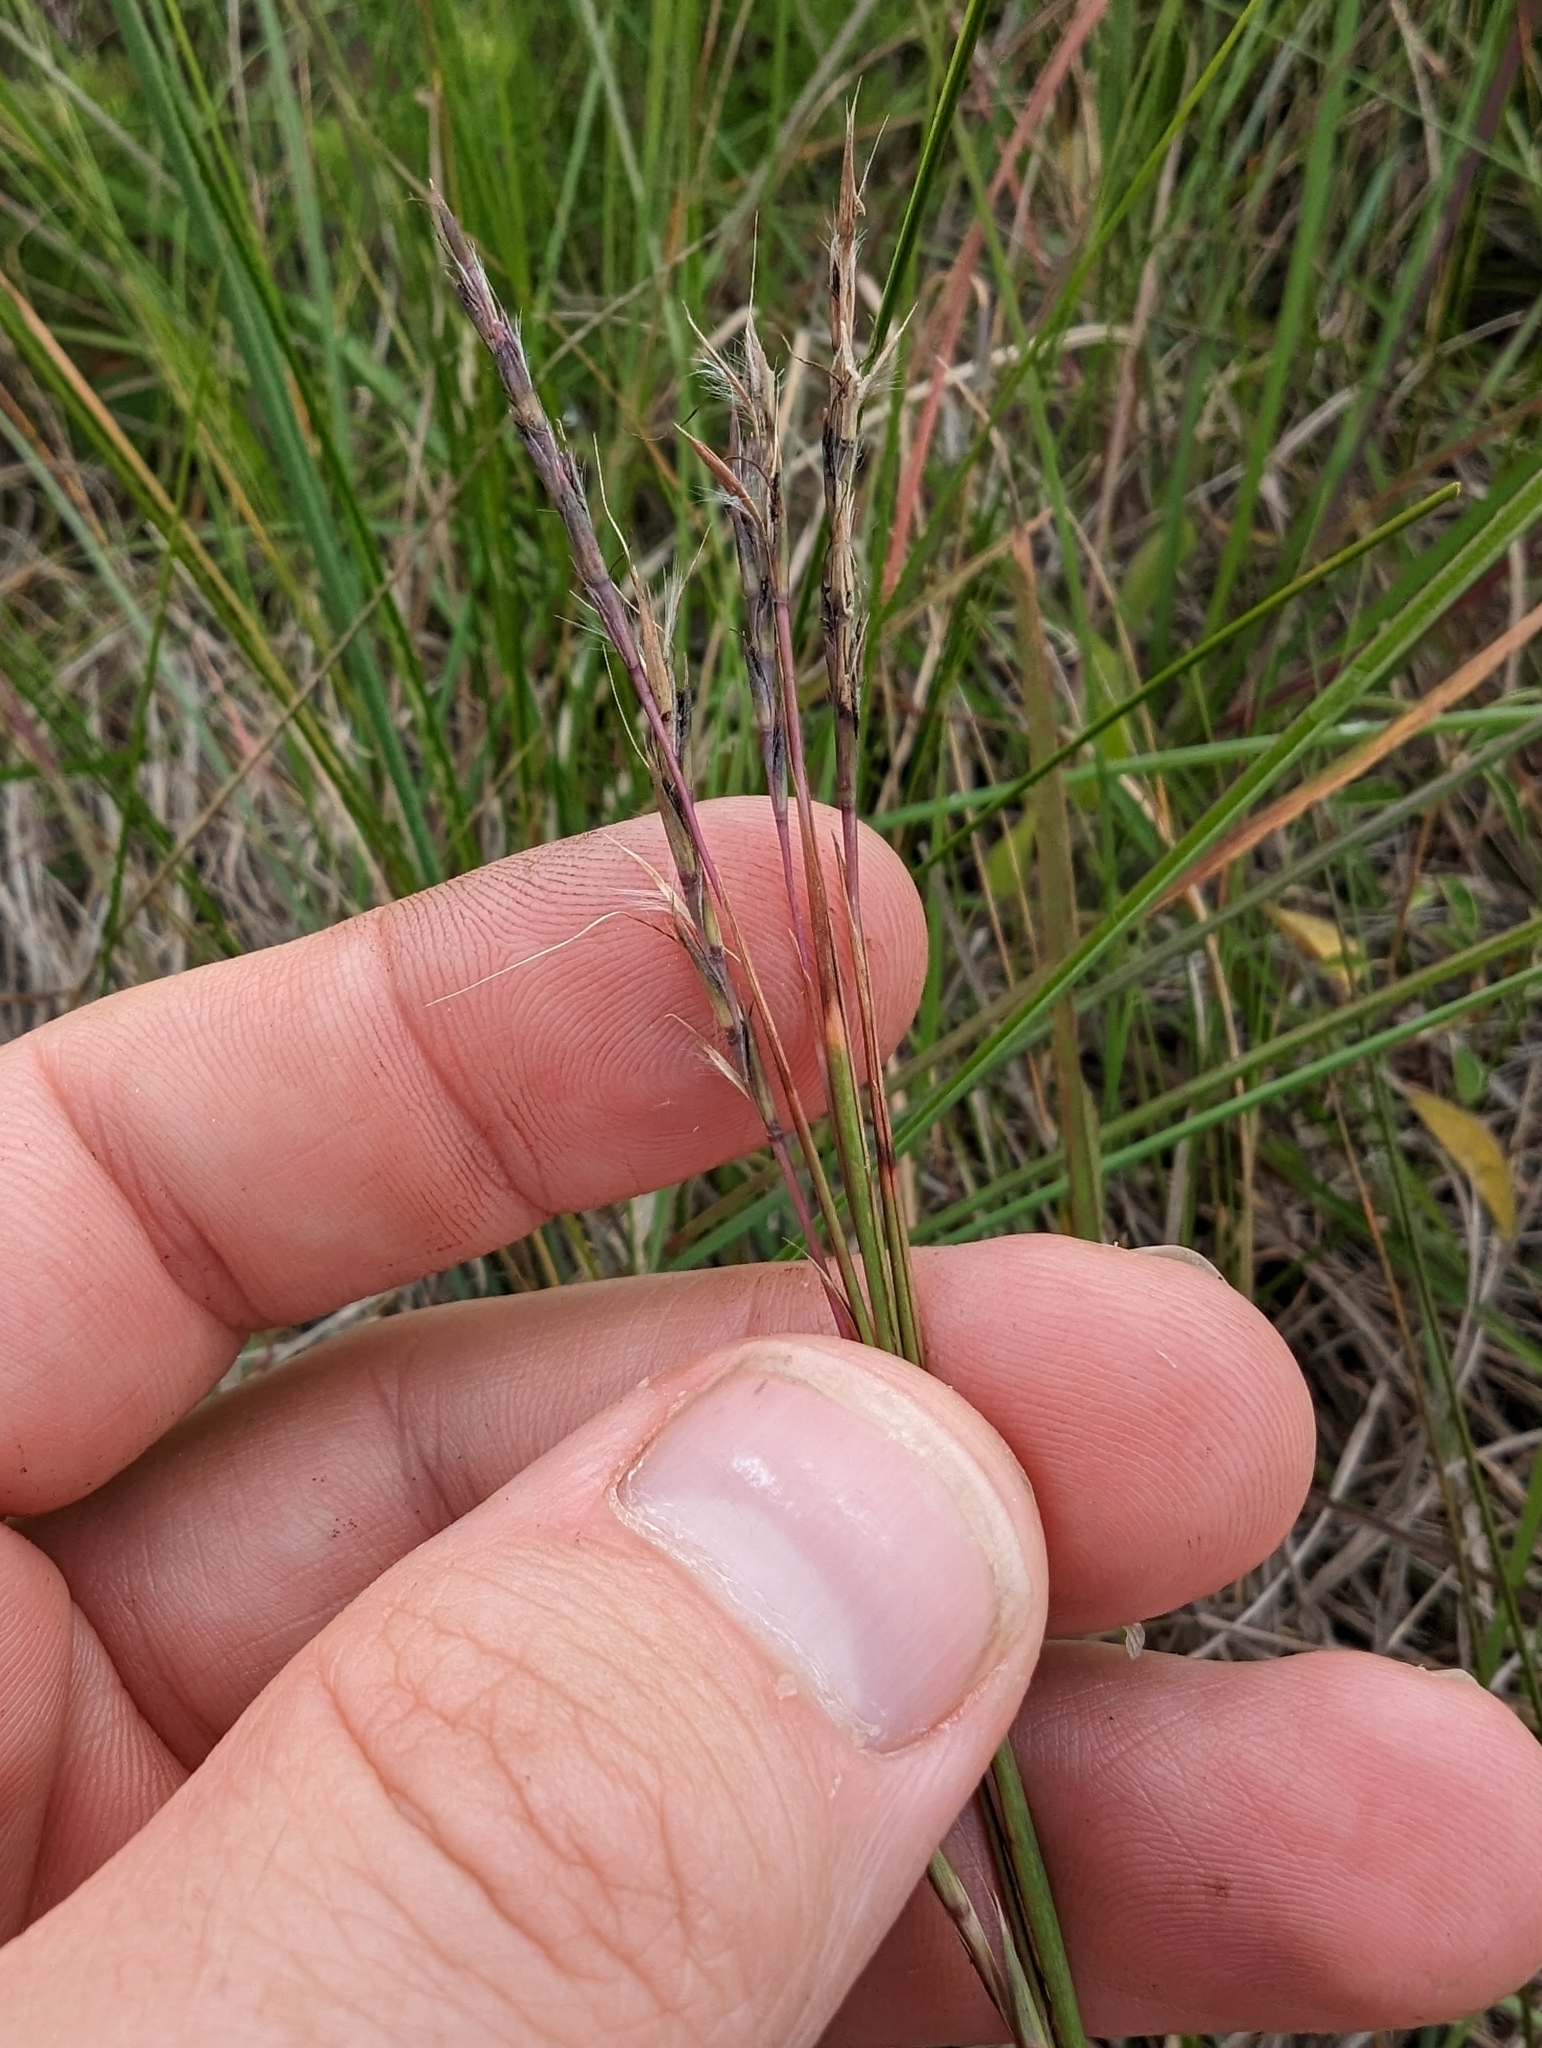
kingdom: Plantae
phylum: Tracheophyta
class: Liliopsida
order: Poales
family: Poaceae
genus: Schizachyrium
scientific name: Schizachyrium scoparium
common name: Little bluestem
